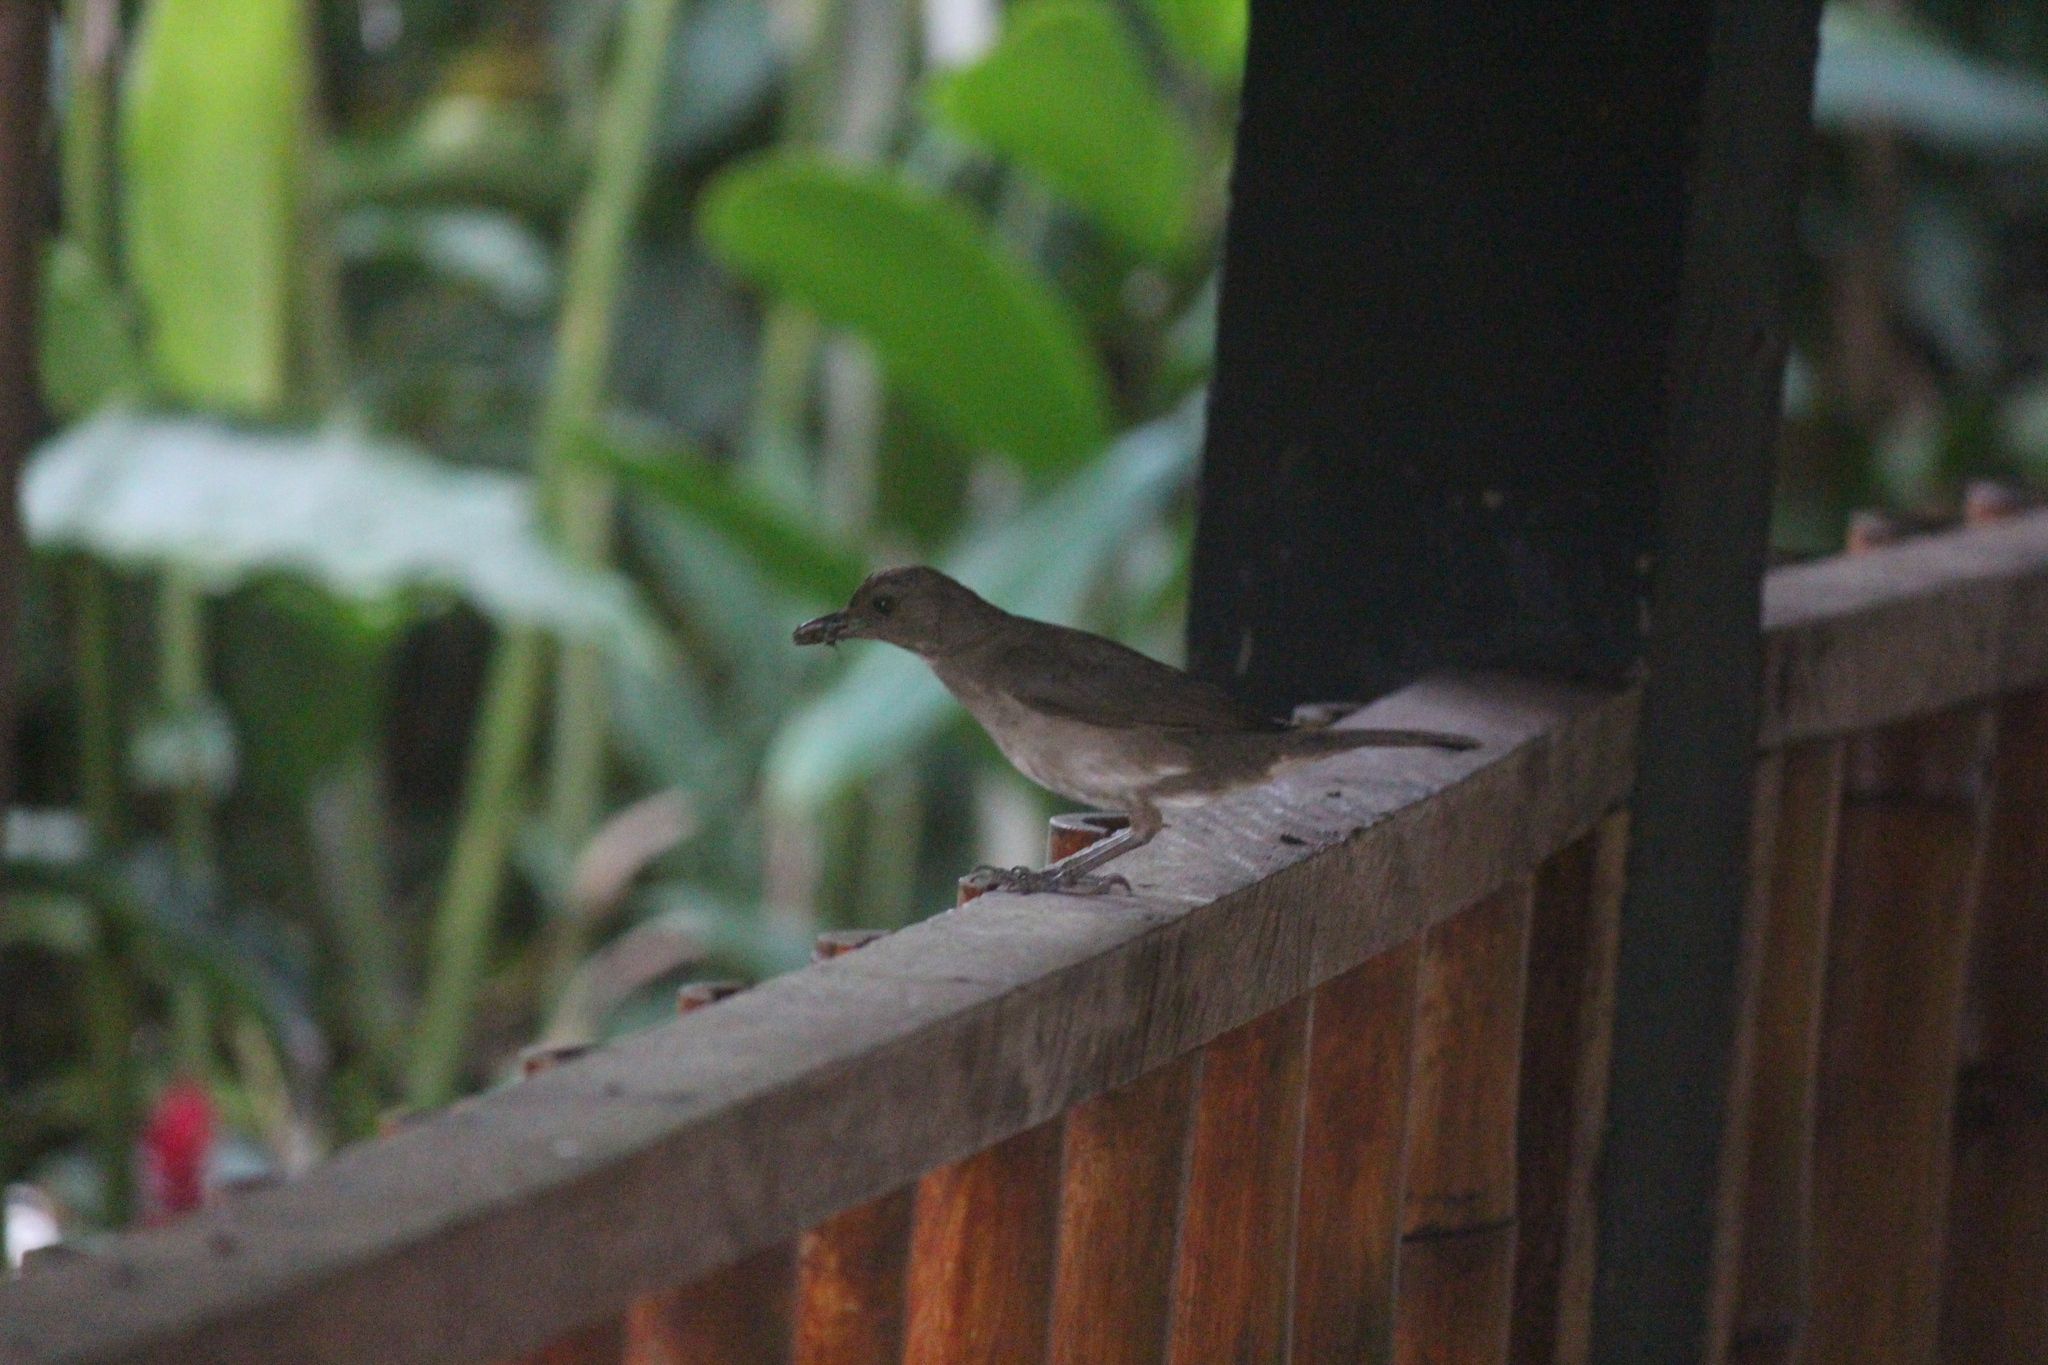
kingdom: Animalia
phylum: Chordata
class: Aves
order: Passeriformes
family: Turdidae
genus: Turdus
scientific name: Turdus ignobilis
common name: Black-billed thrush
